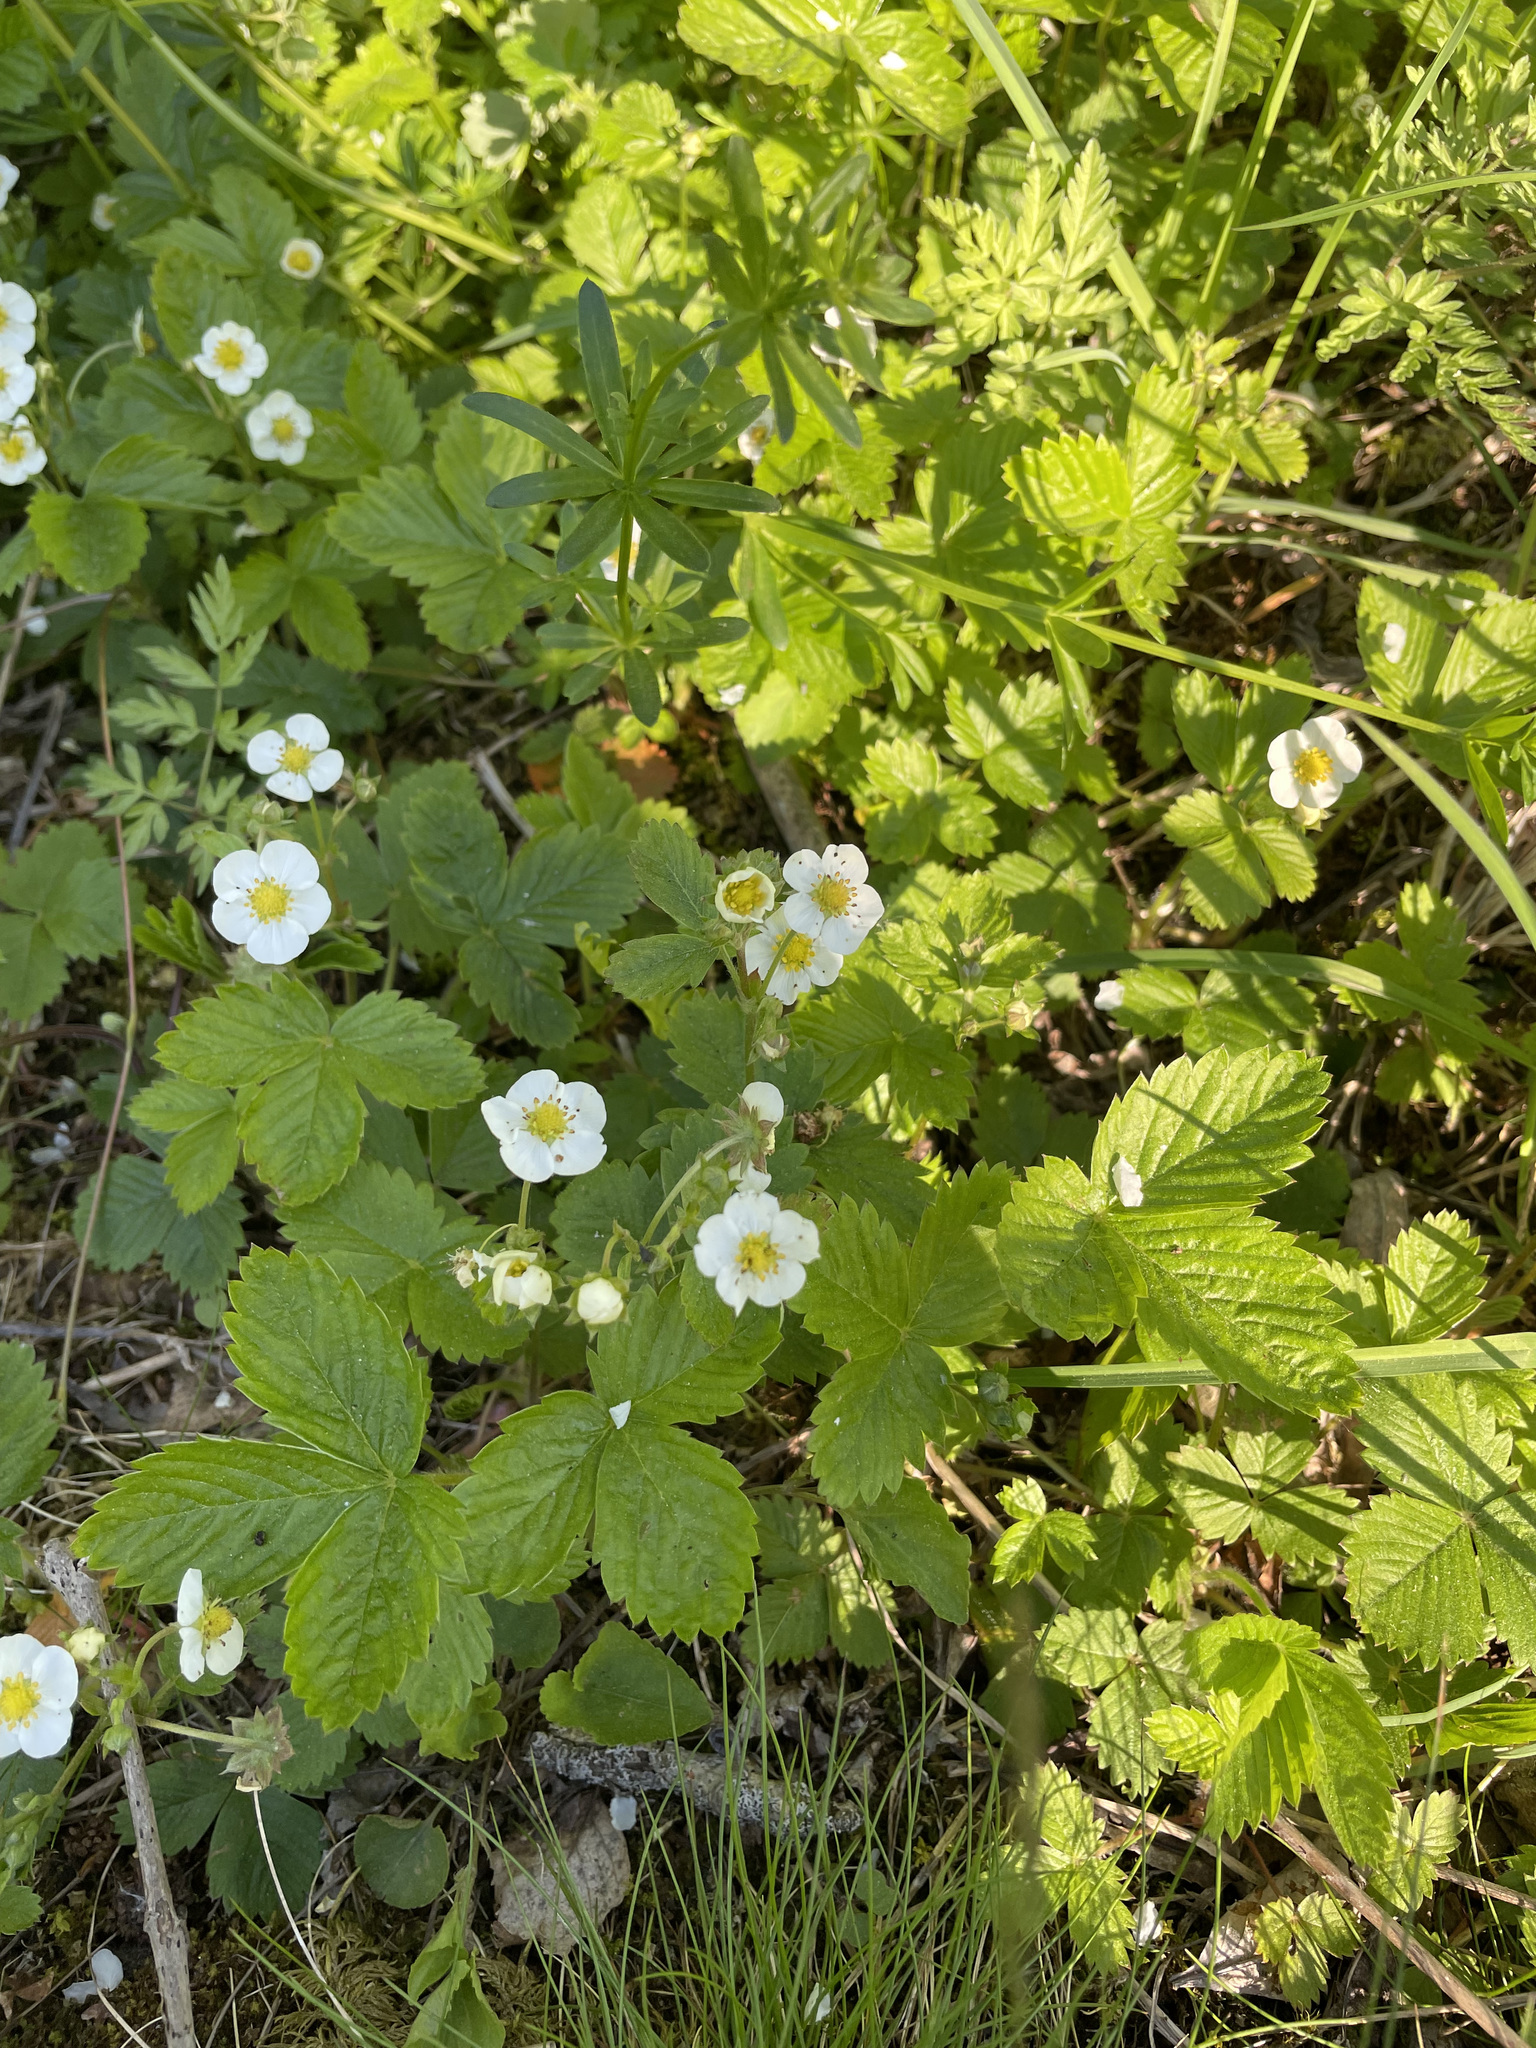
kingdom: Plantae
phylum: Tracheophyta
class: Magnoliopsida
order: Rosales
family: Rosaceae
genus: Fragaria
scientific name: Fragaria vesca
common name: Wild strawberry
